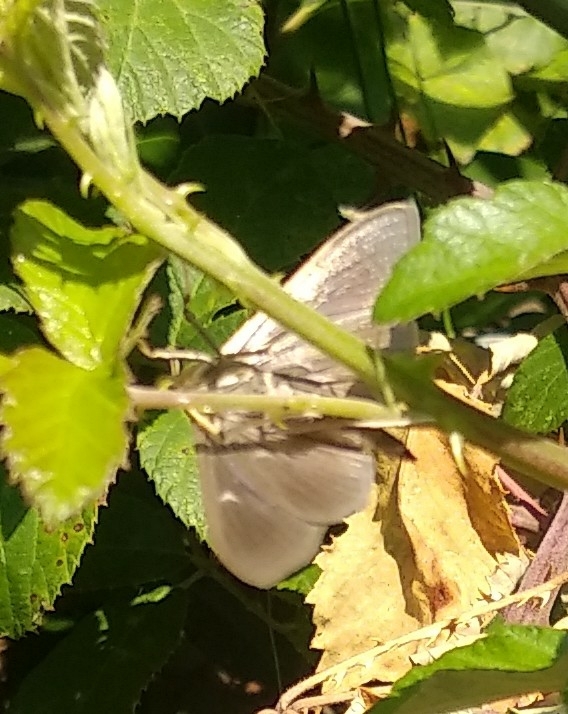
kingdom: Animalia
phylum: Arthropoda
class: Insecta
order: Lepidoptera
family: Crambidae
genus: Cydalima
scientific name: Cydalima perspectalis
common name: Box tree moth
